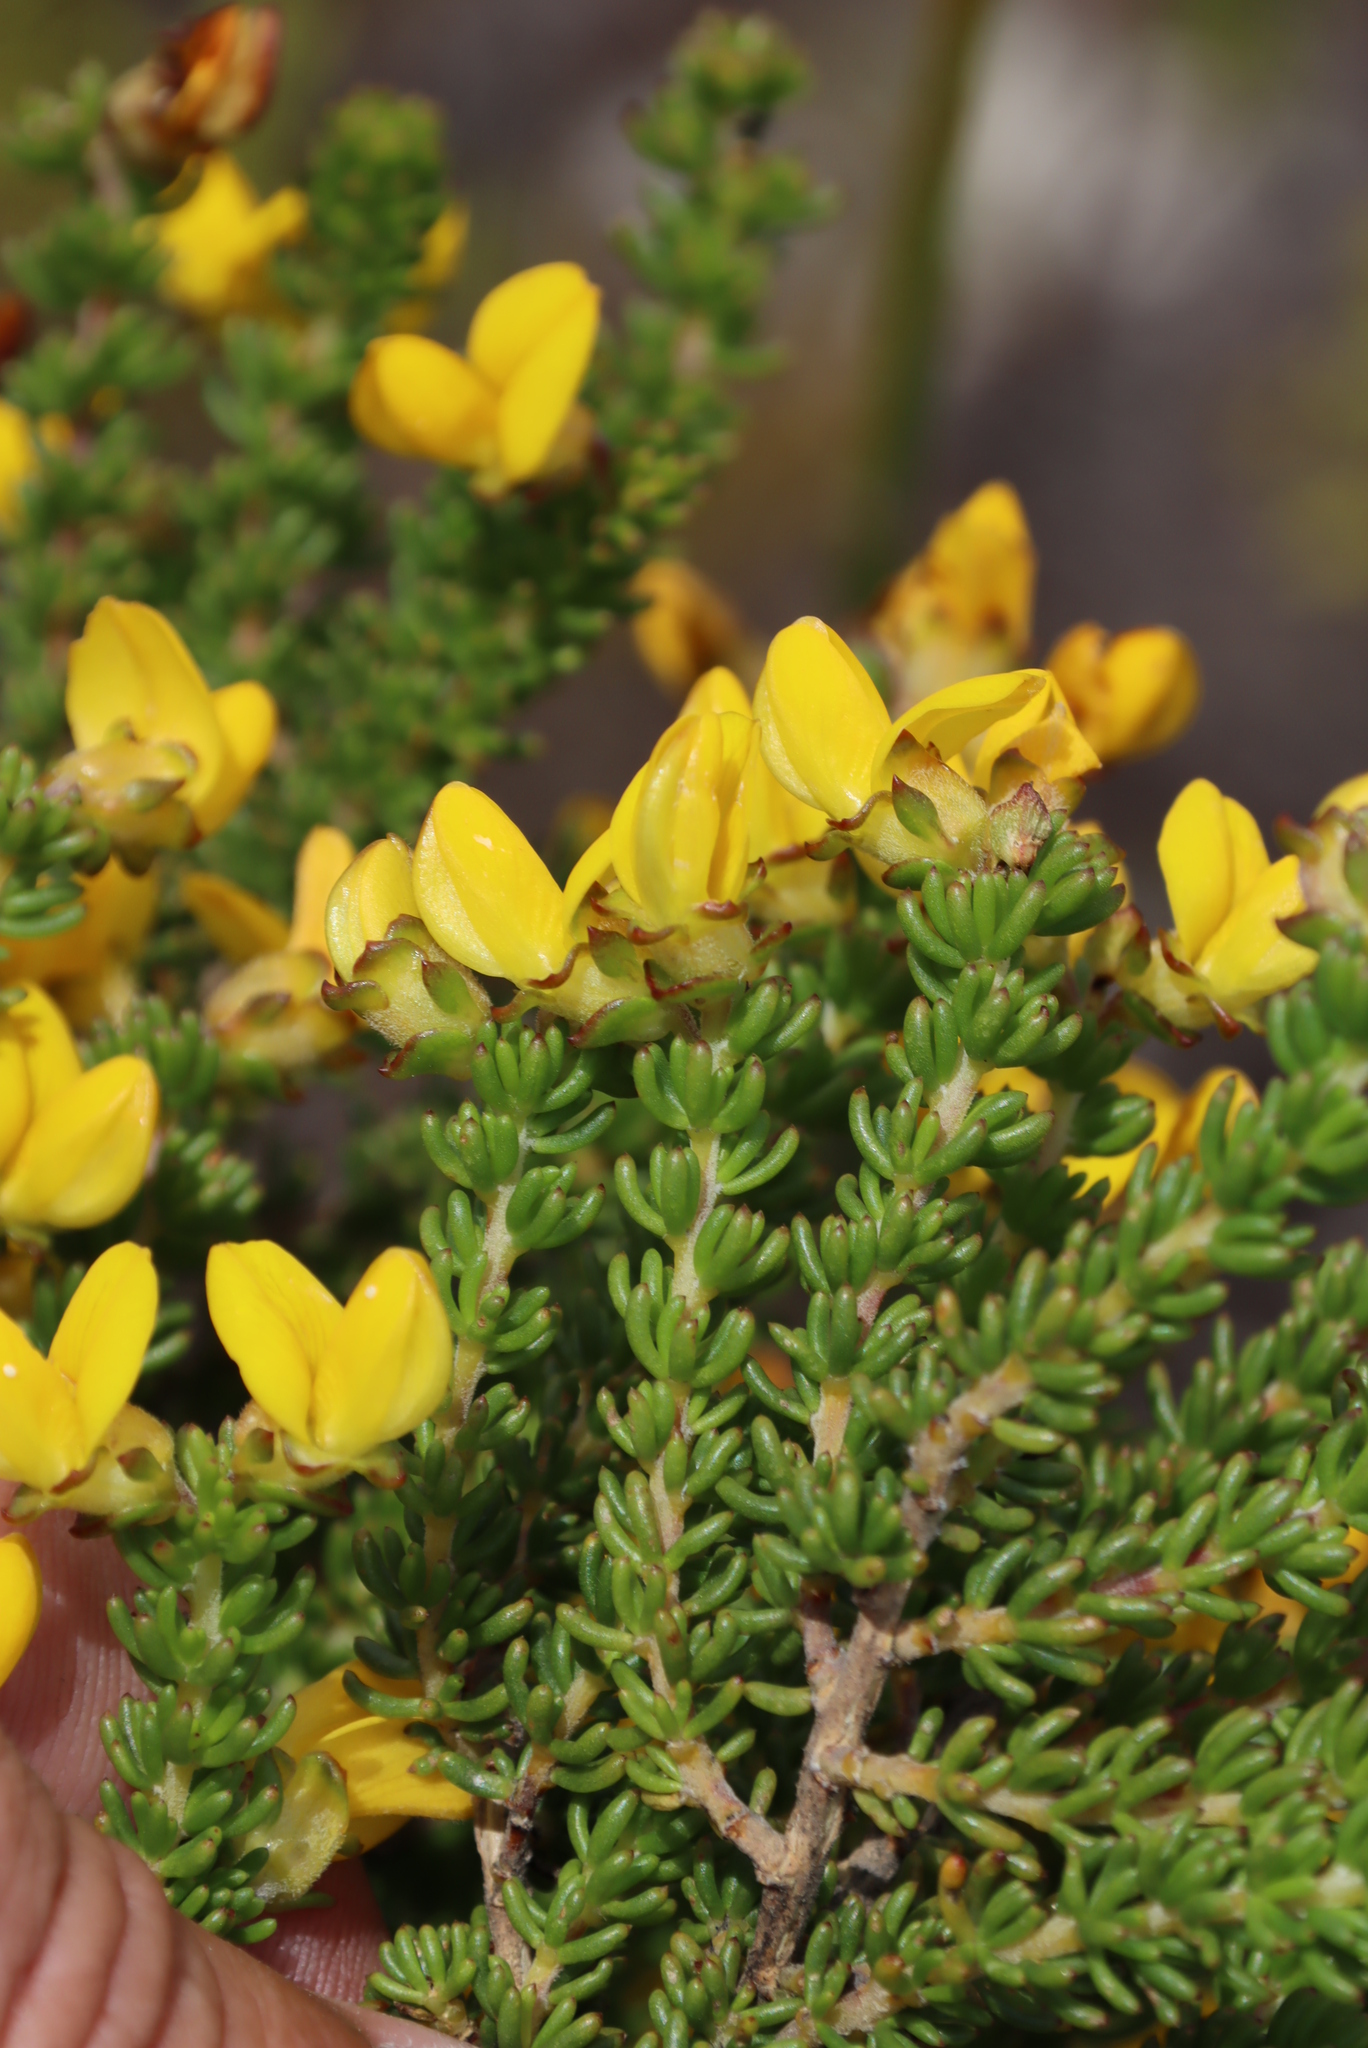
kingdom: Plantae
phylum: Tracheophyta
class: Magnoliopsida
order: Fabales
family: Fabaceae
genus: Aspalathus
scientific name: Aspalathus carnosa
